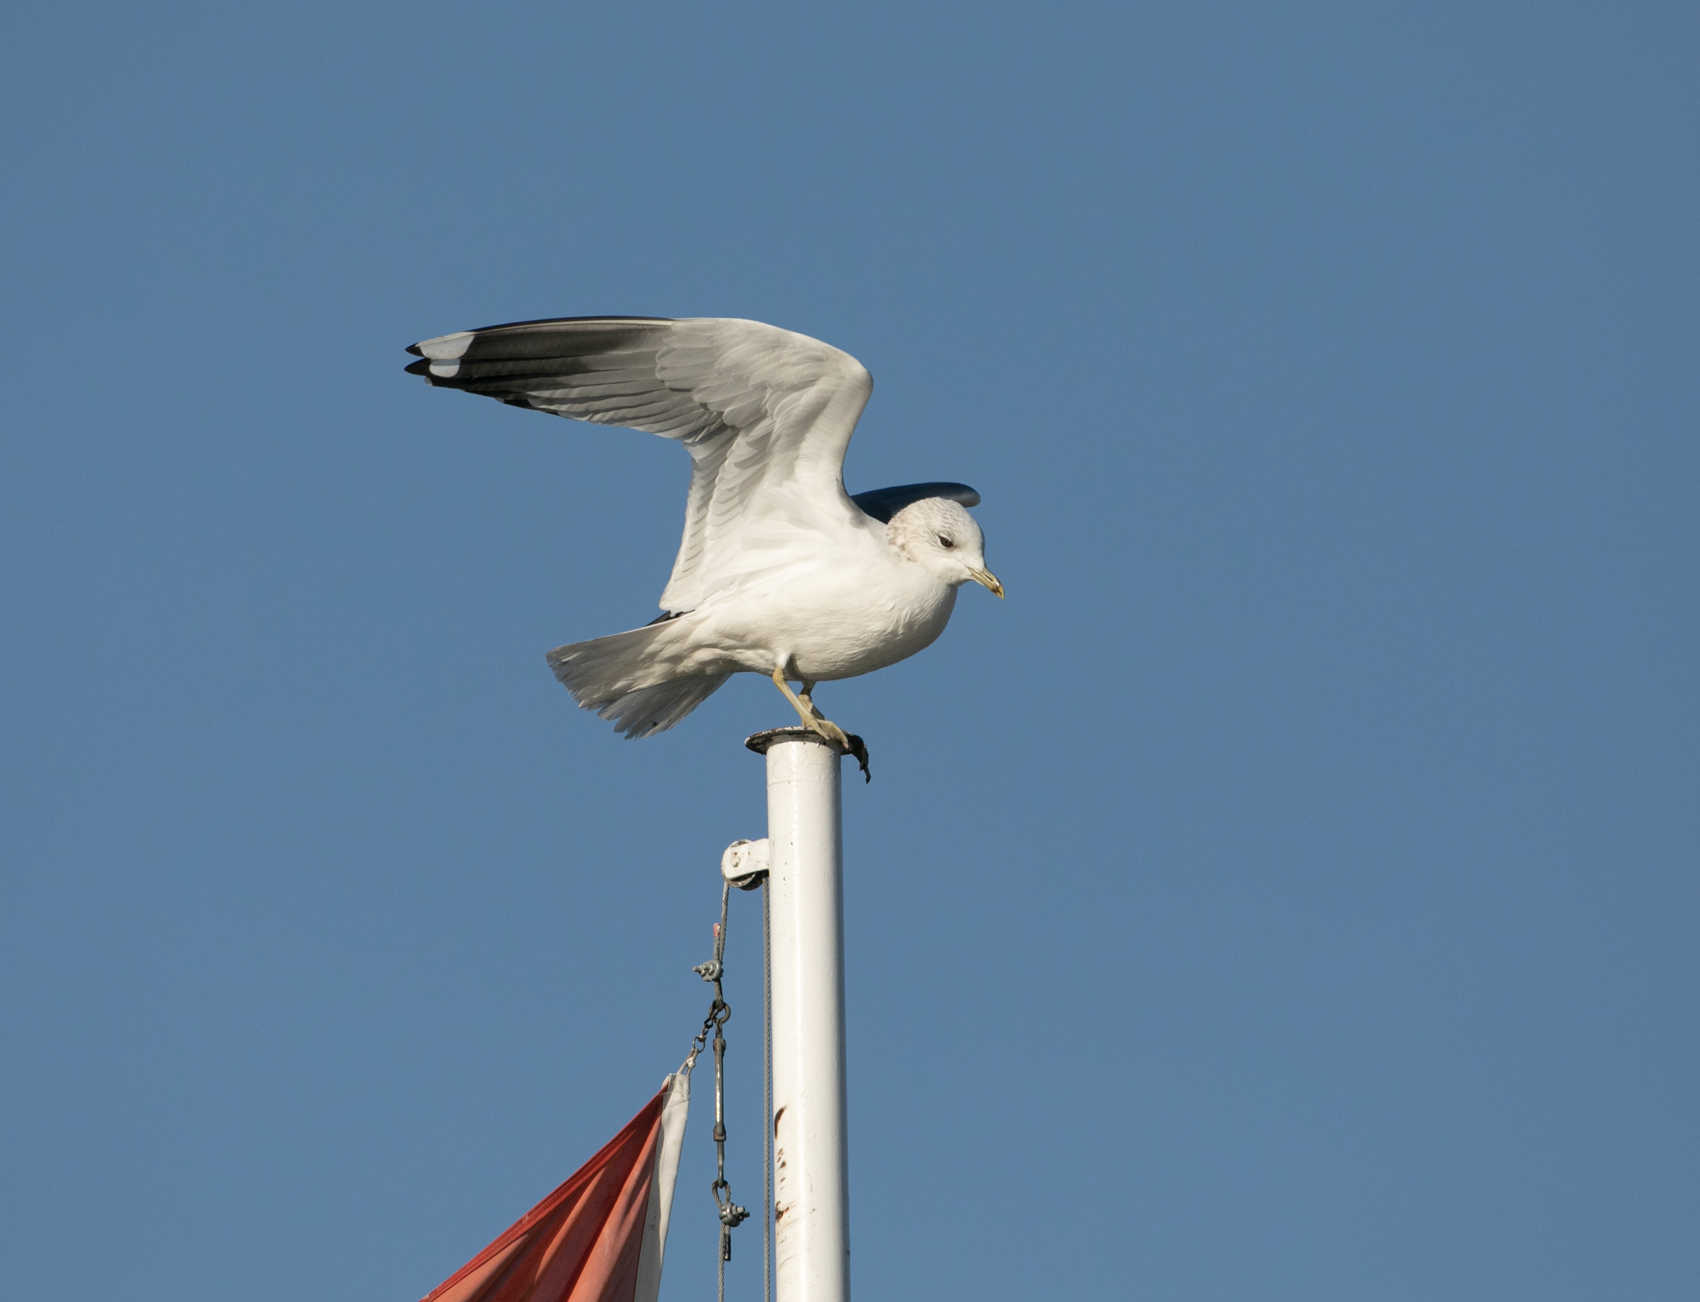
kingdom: Animalia
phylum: Chordata
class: Aves
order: Charadriiformes
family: Laridae
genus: Larus
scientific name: Larus canus
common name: Mew gull
